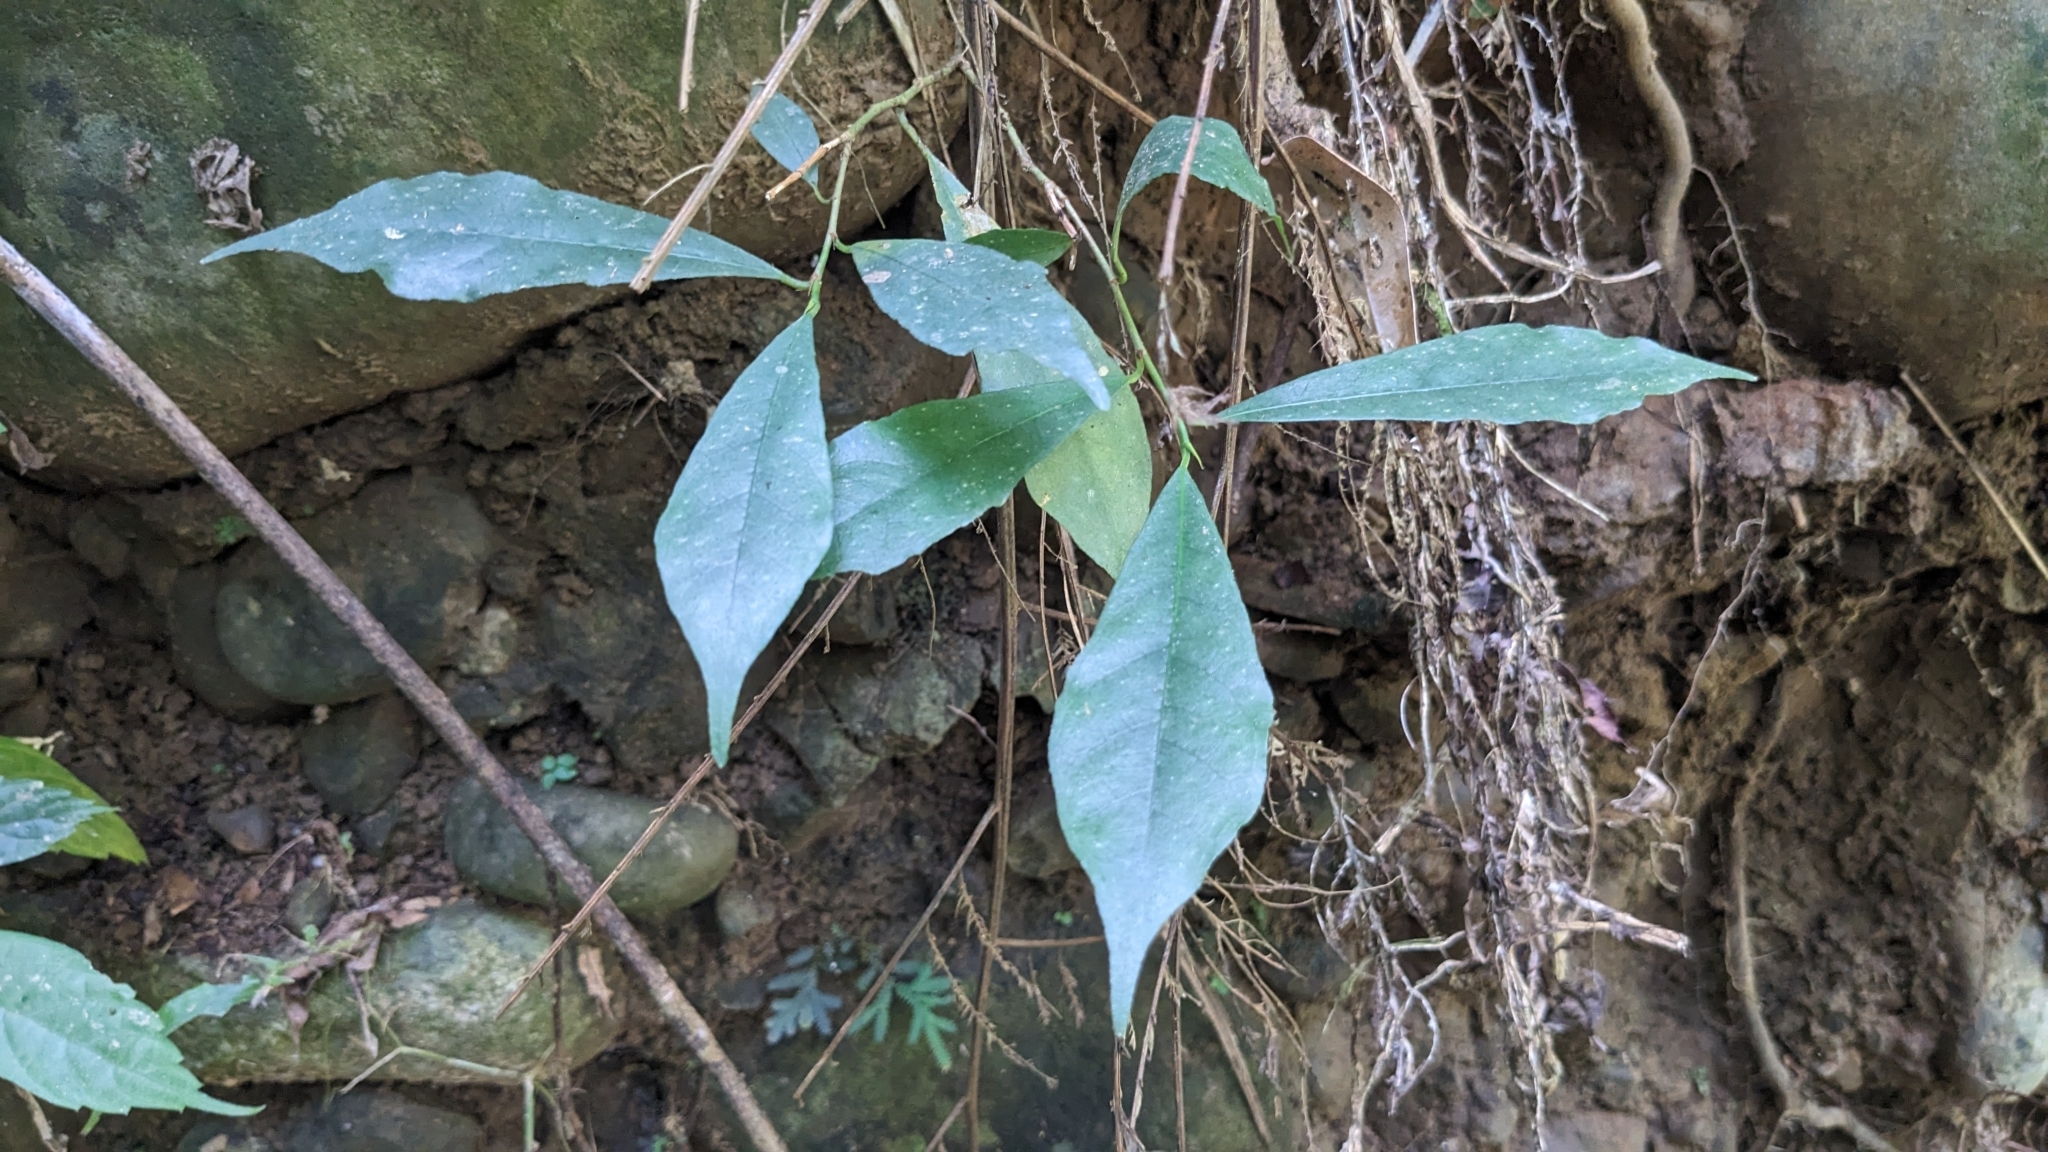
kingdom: Plantae
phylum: Tracheophyta
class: Magnoliopsida
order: Rosales
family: Moraceae
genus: Ficus
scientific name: Ficus formosana
